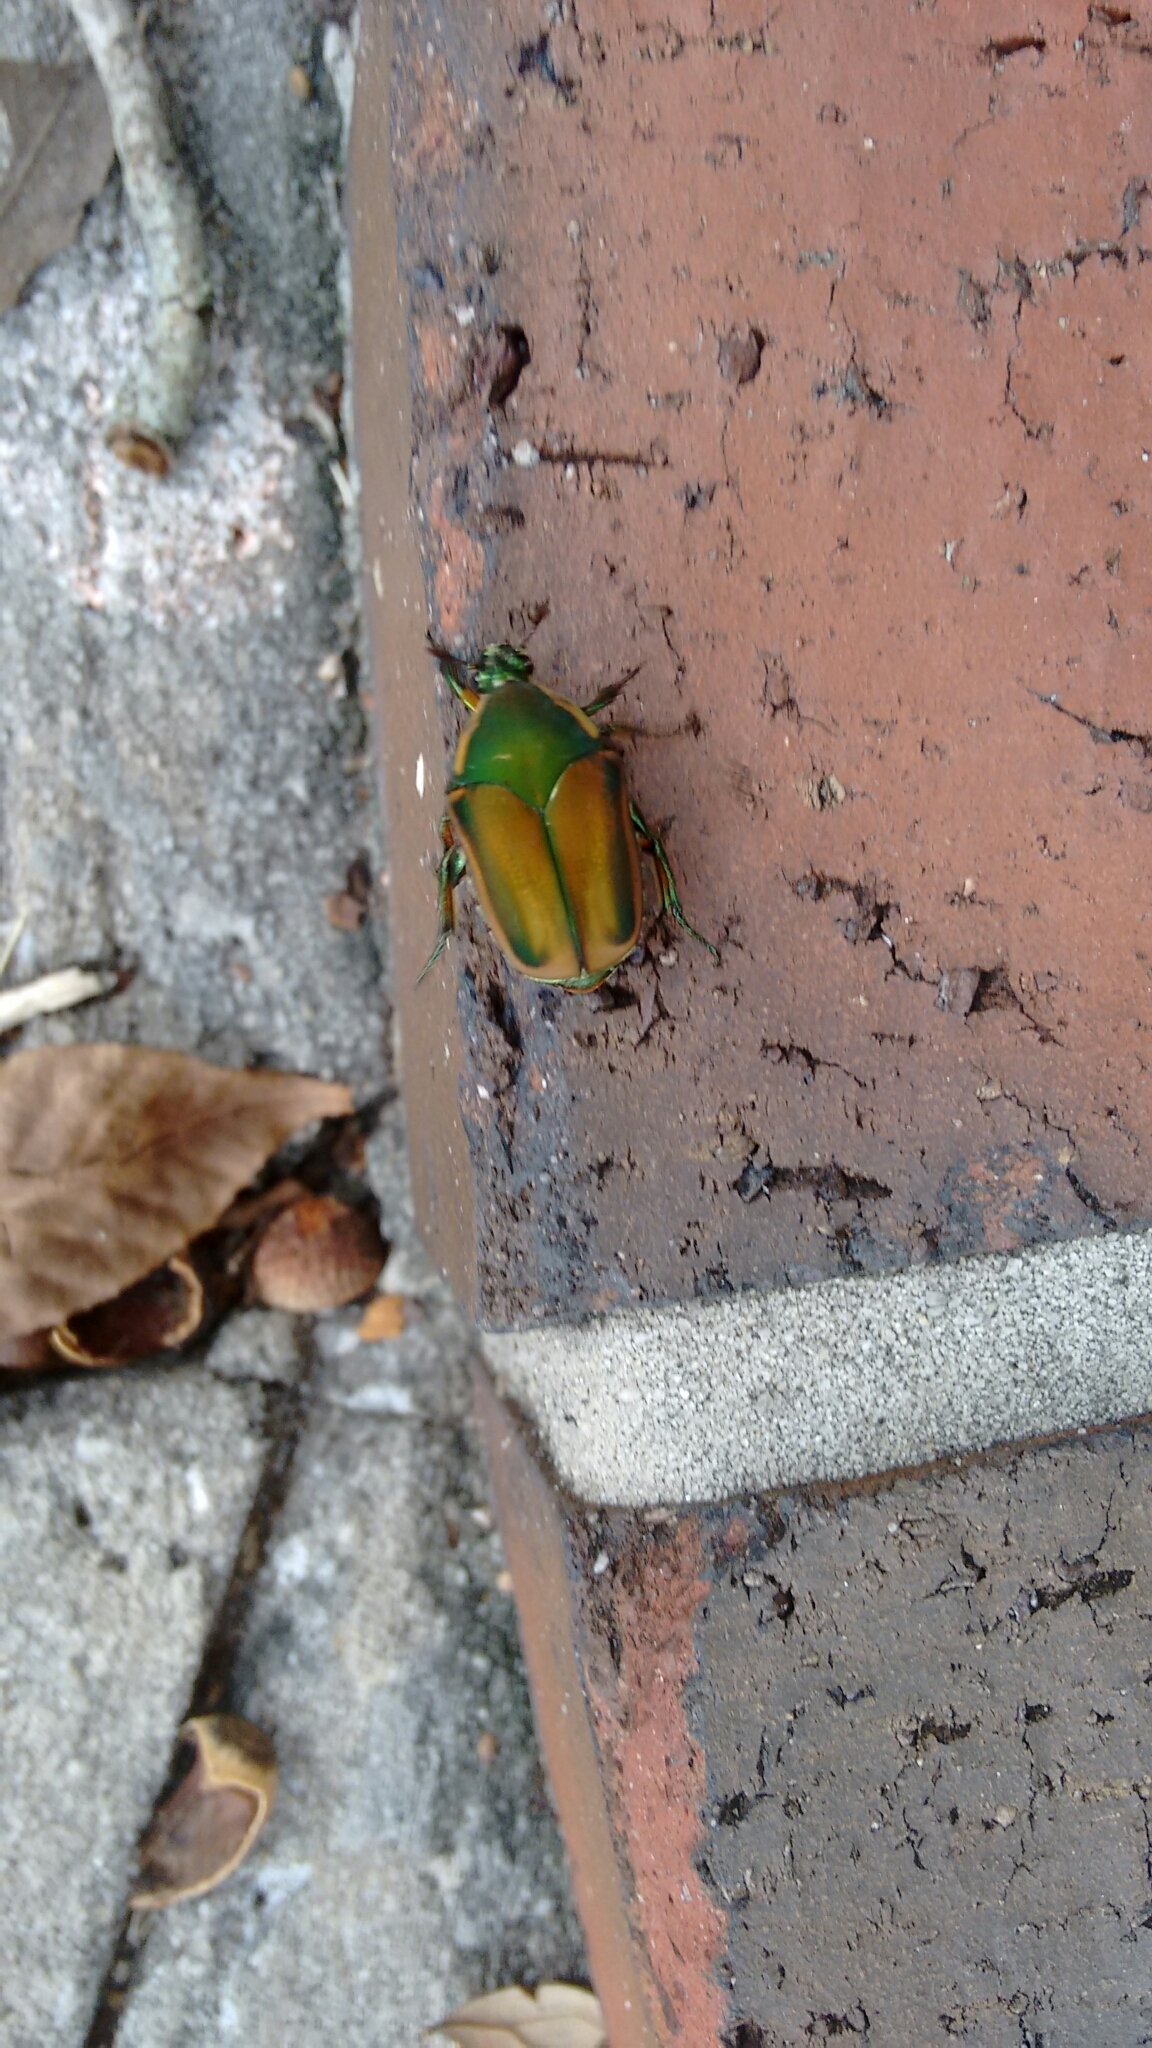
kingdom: Animalia
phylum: Arthropoda
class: Insecta
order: Coleoptera
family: Scarabaeidae
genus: Cotinis
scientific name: Cotinis nitida
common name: Common green june beetle
